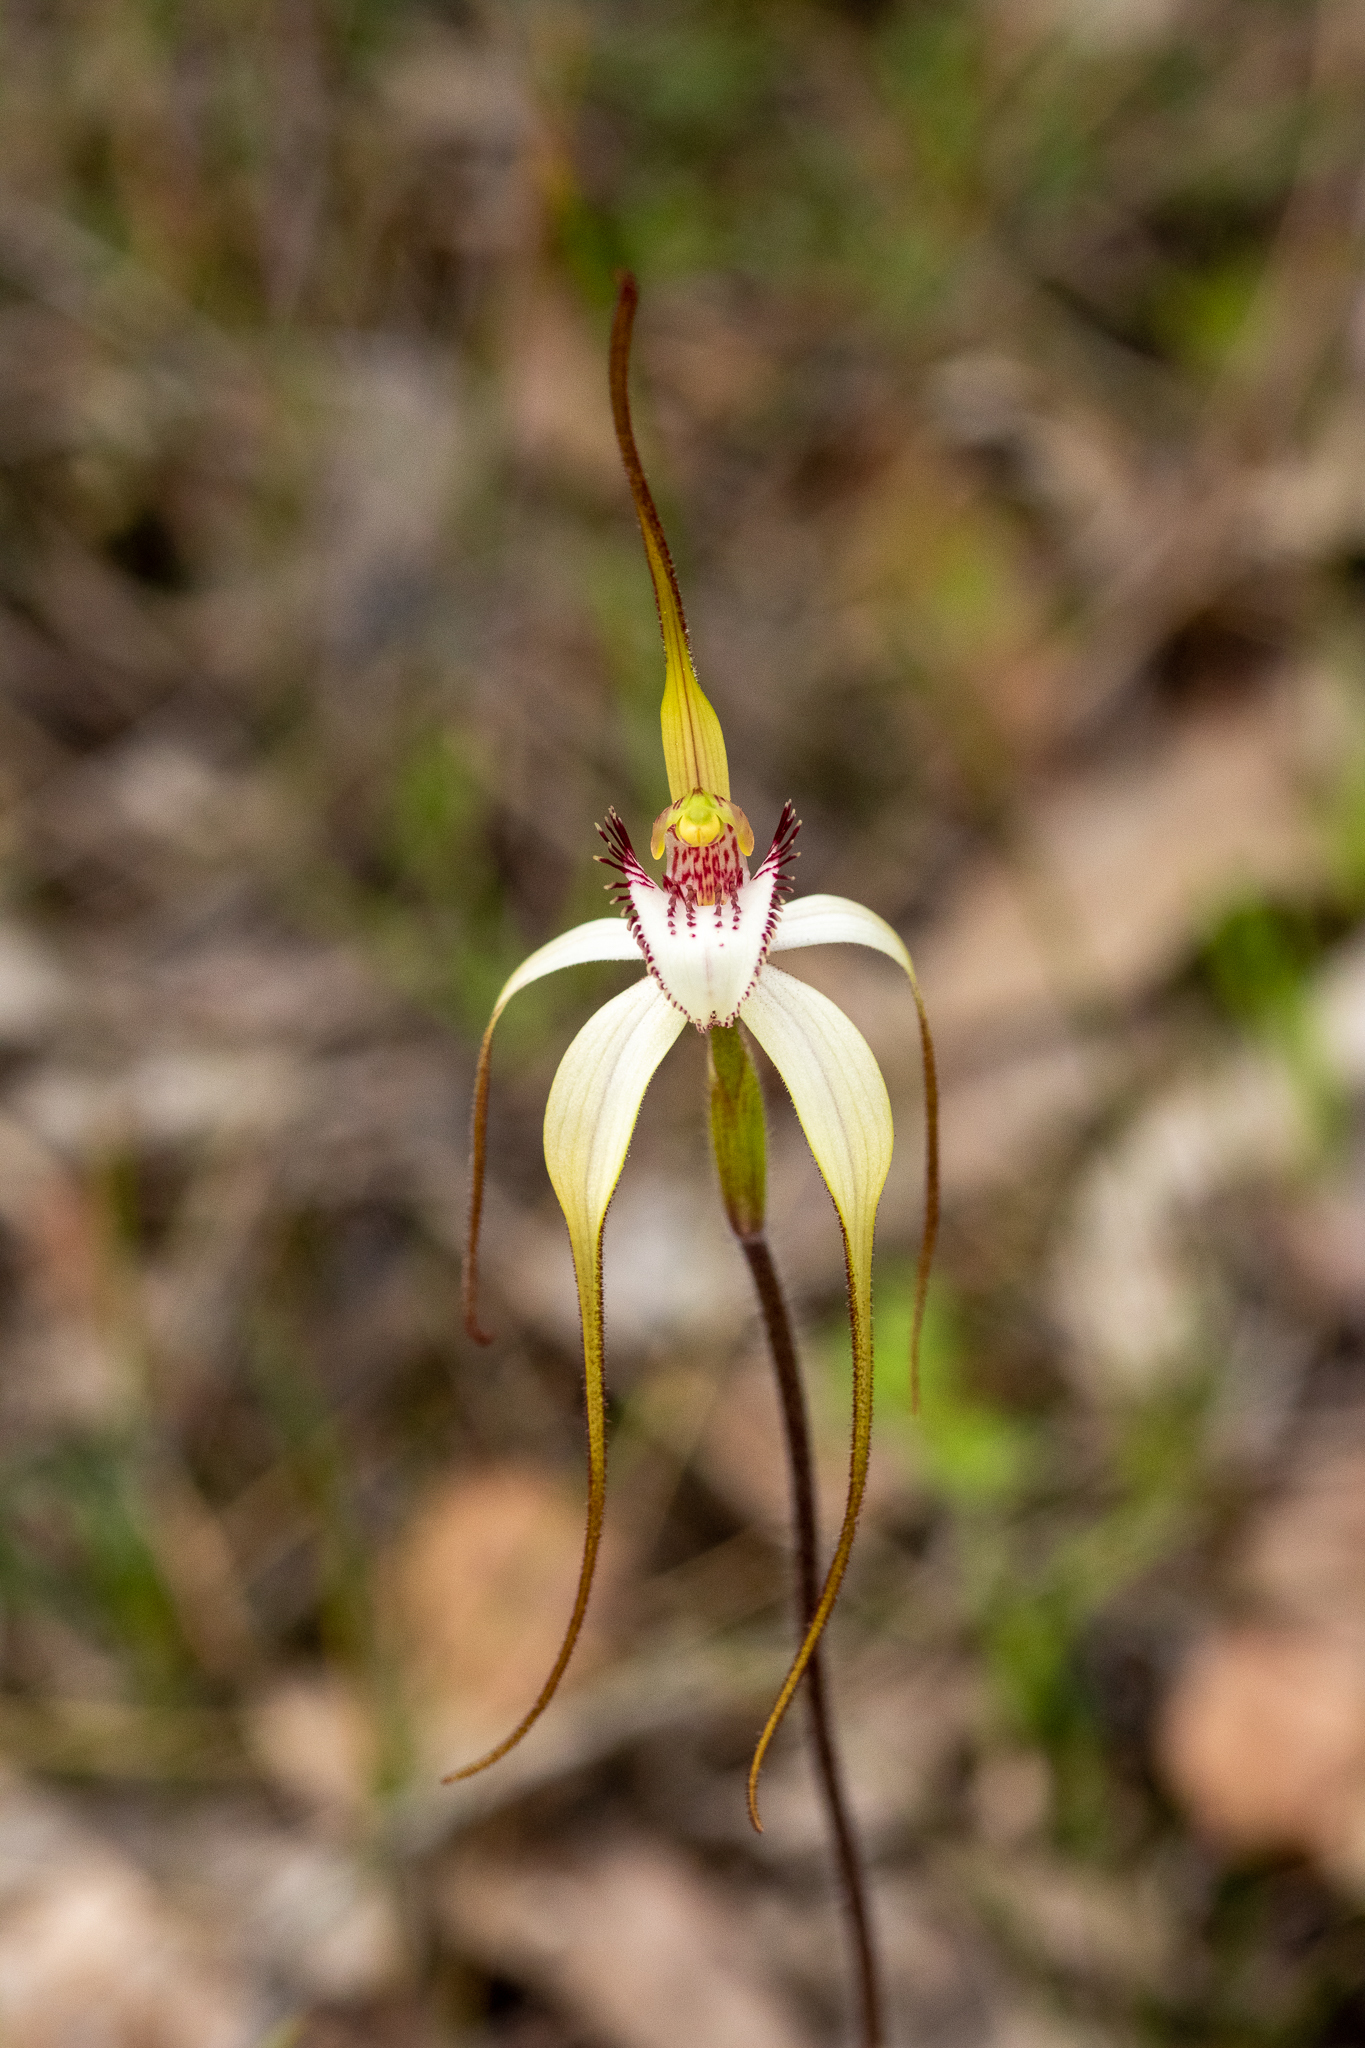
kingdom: Plantae
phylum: Tracheophyta
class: Liliopsida
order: Asparagales
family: Orchidaceae
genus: Caladenia
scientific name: Caladenia longicauda
